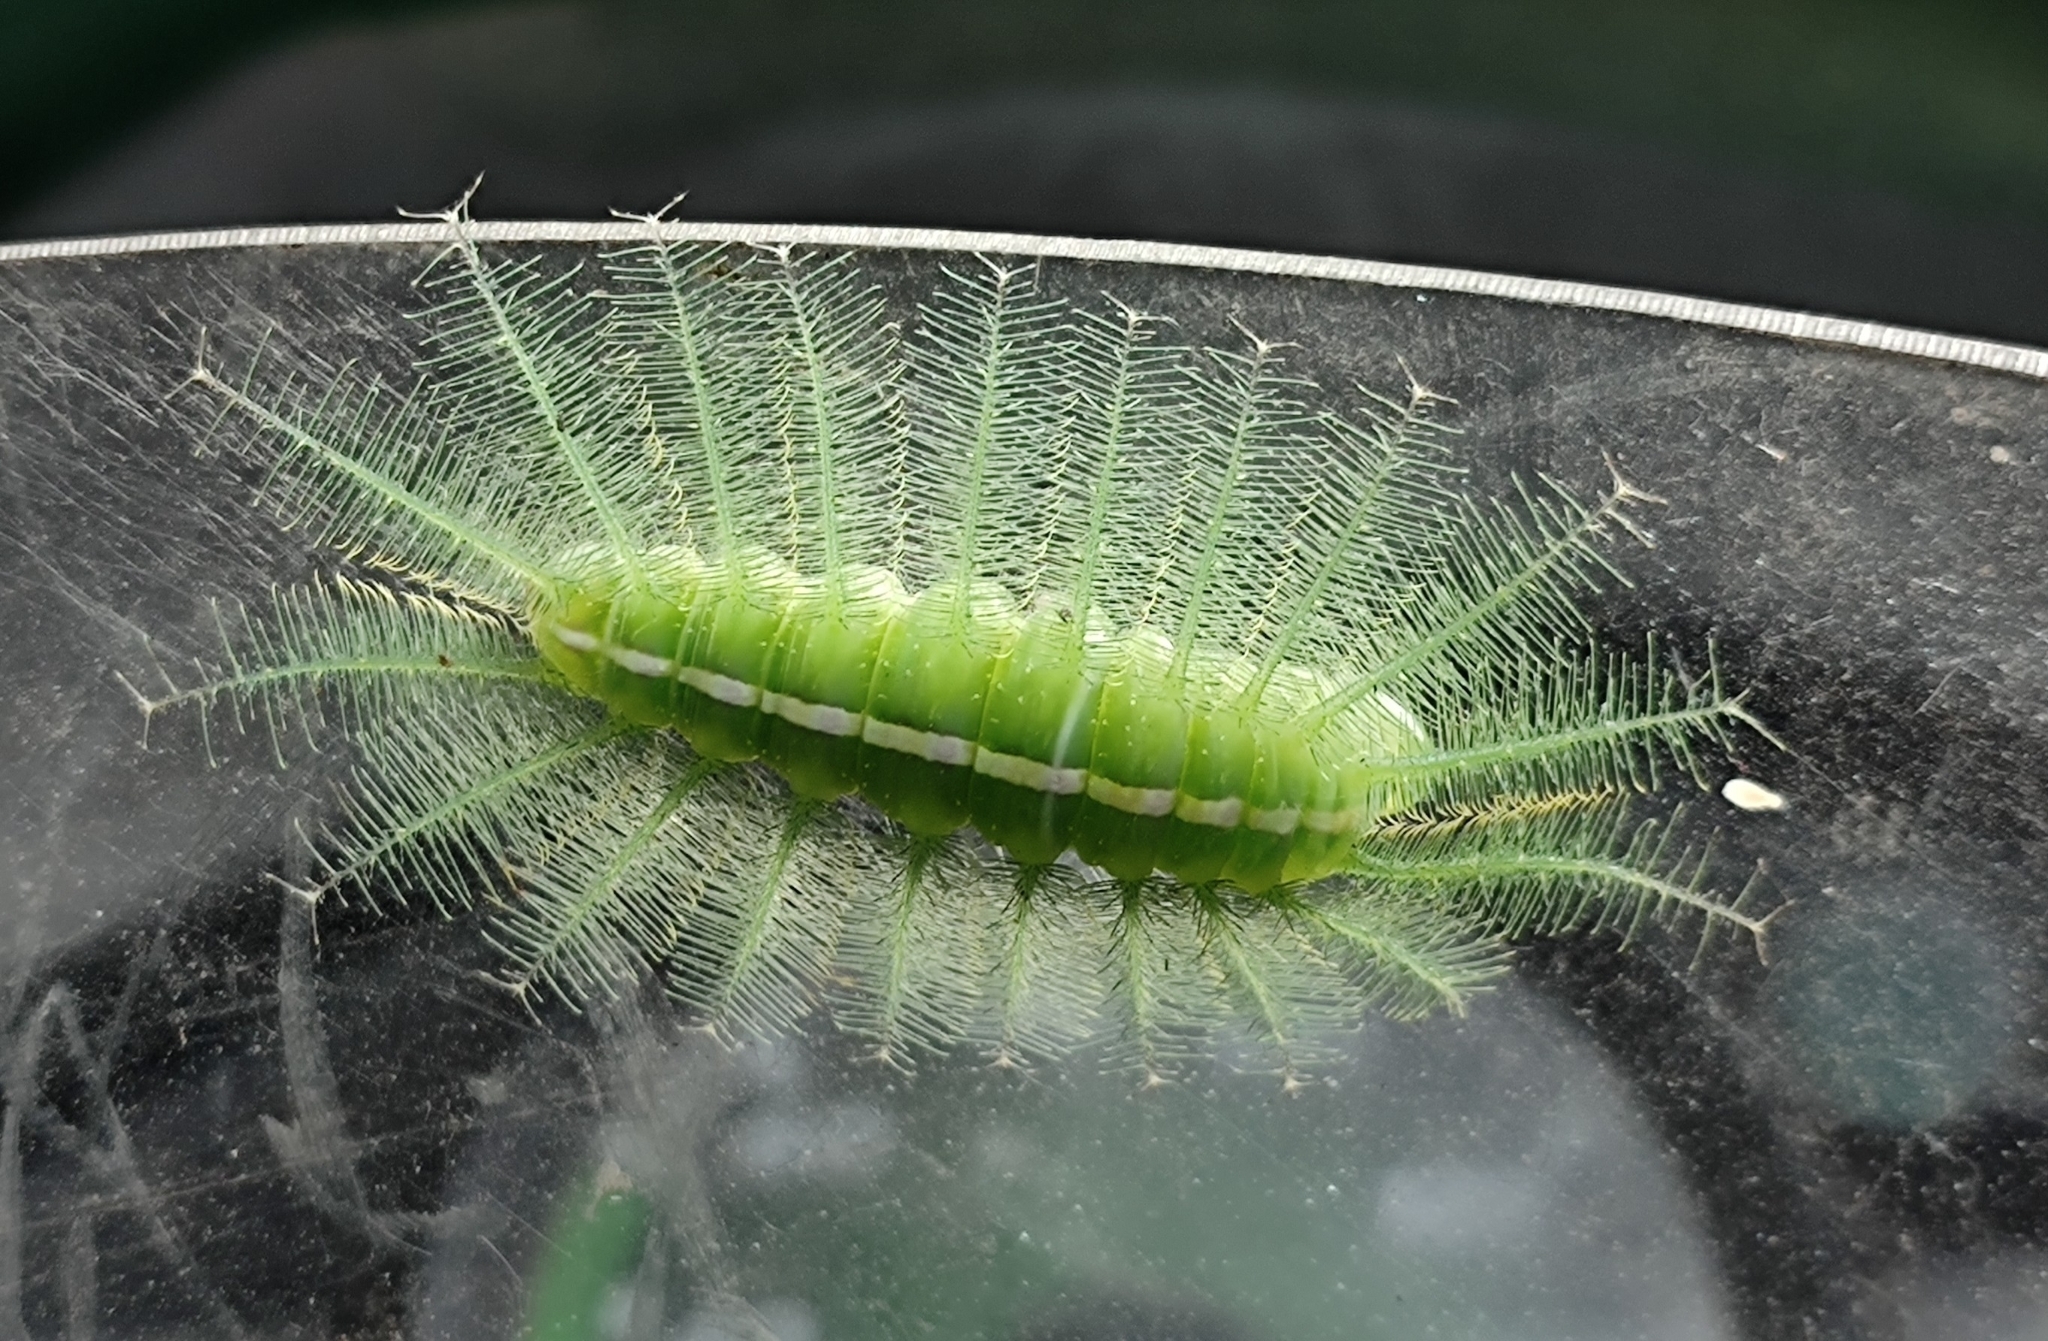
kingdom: Animalia
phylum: Arthropoda
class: Insecta
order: Lepidoptera
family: Nymphalidae
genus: Euthalia
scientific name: Euthalia aconthea
